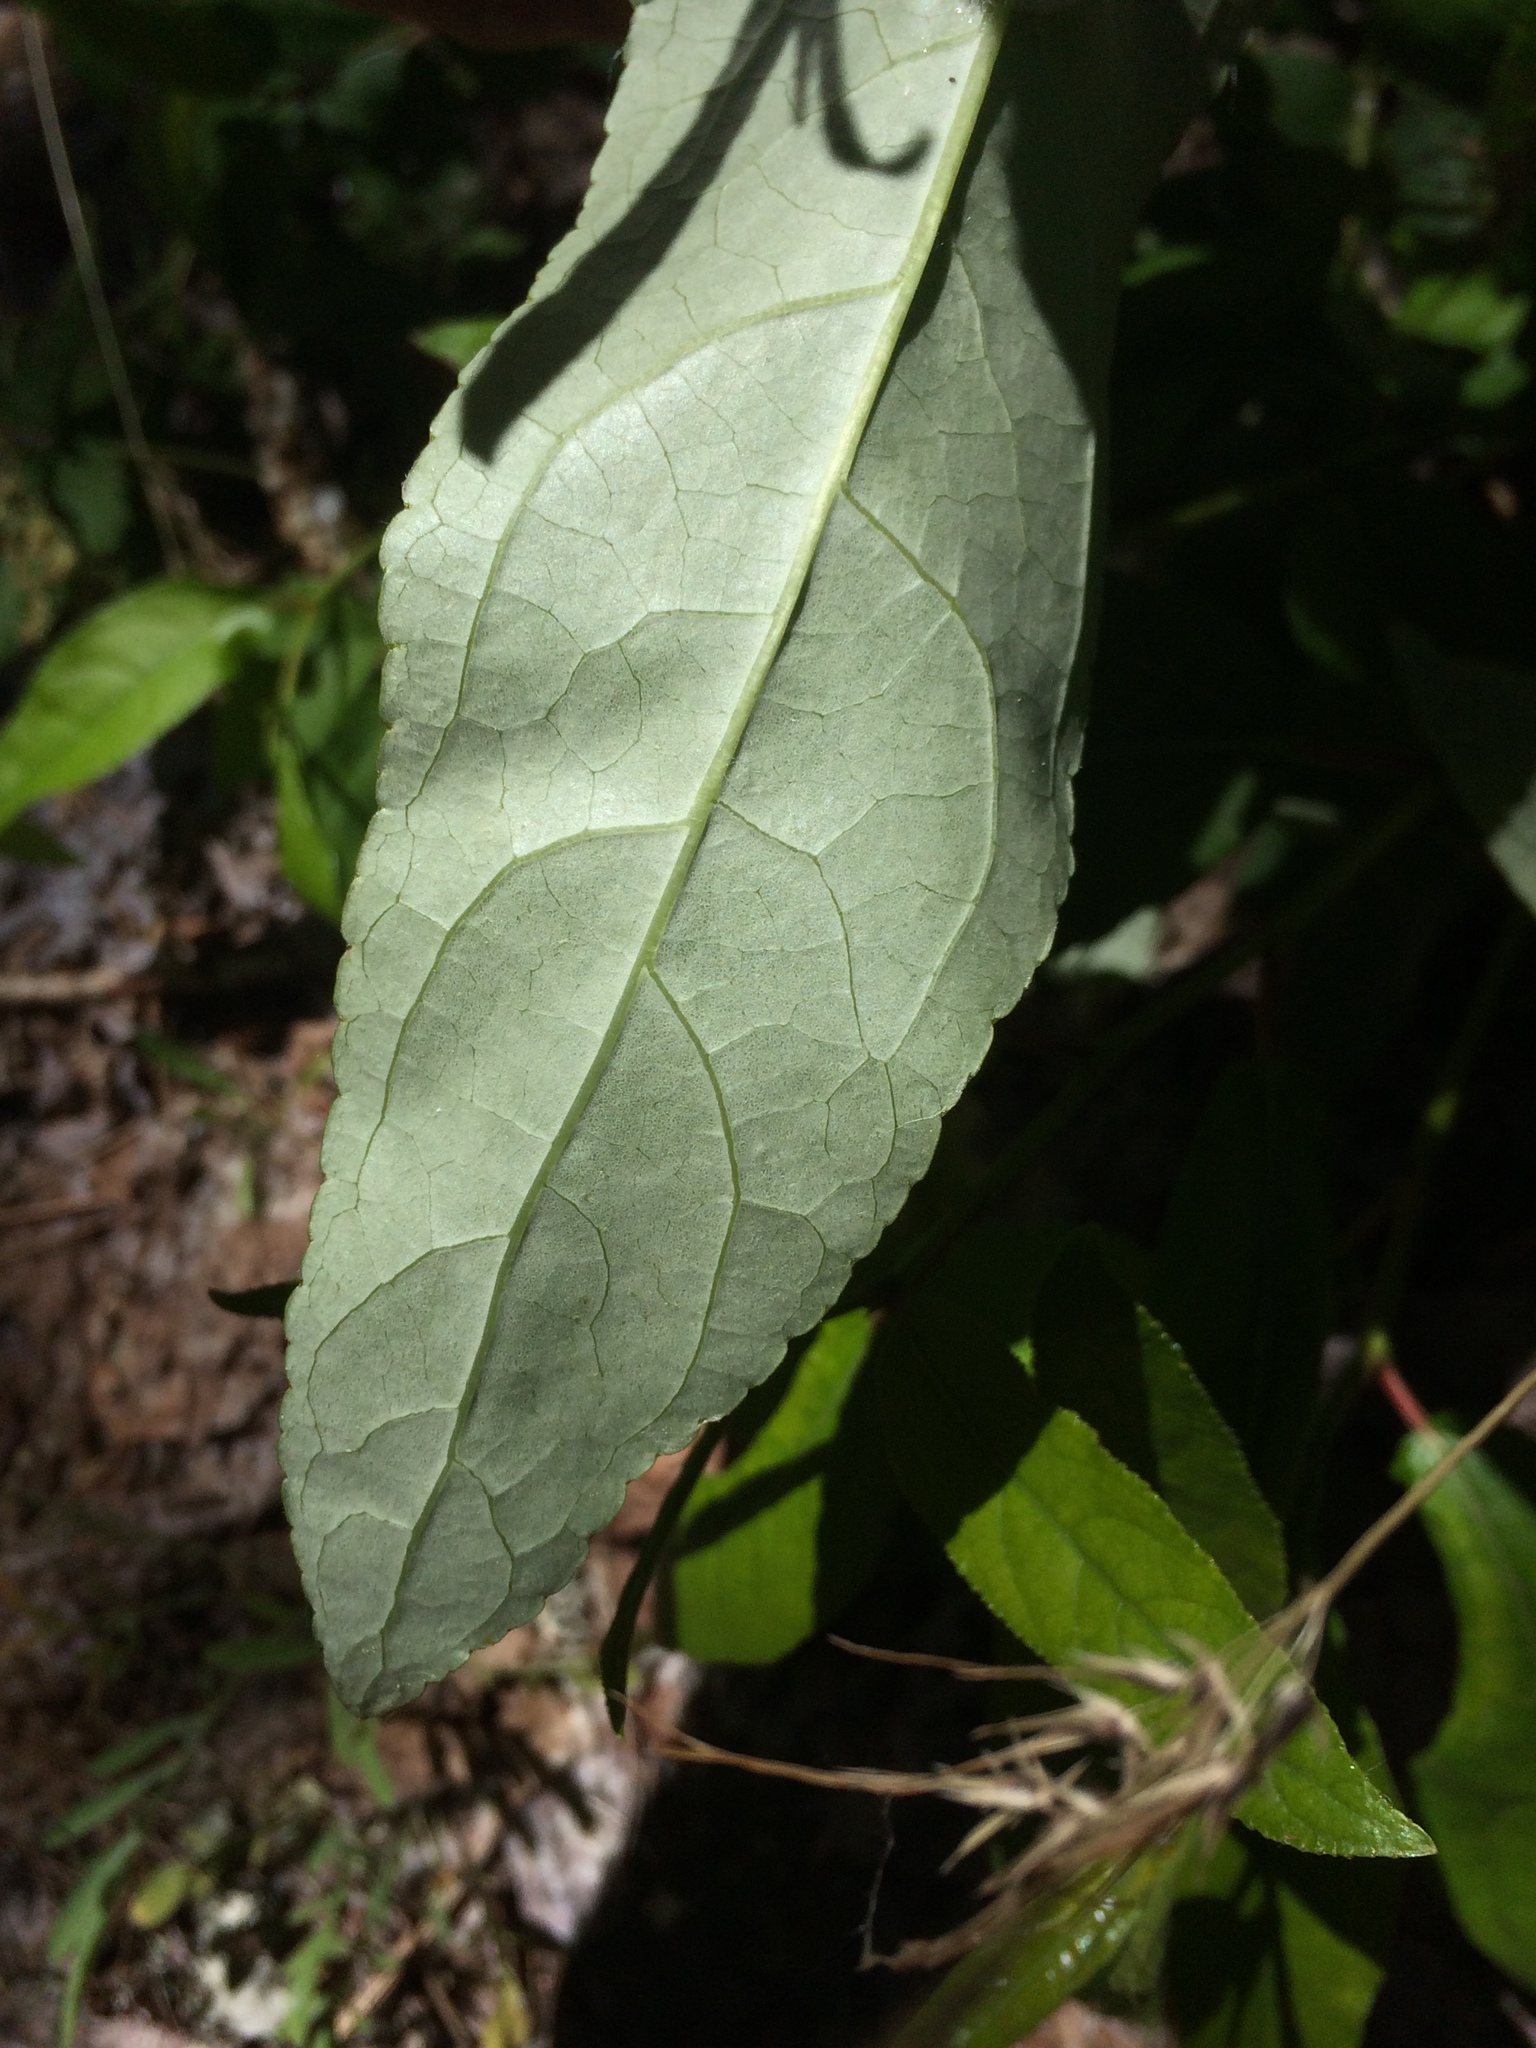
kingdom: Plantae
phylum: Tracheophyta
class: Magnoliopsida
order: Malpighiales
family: Salicaceae
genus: Populus
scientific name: Populus trichocarpa
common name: Black cottonwood
